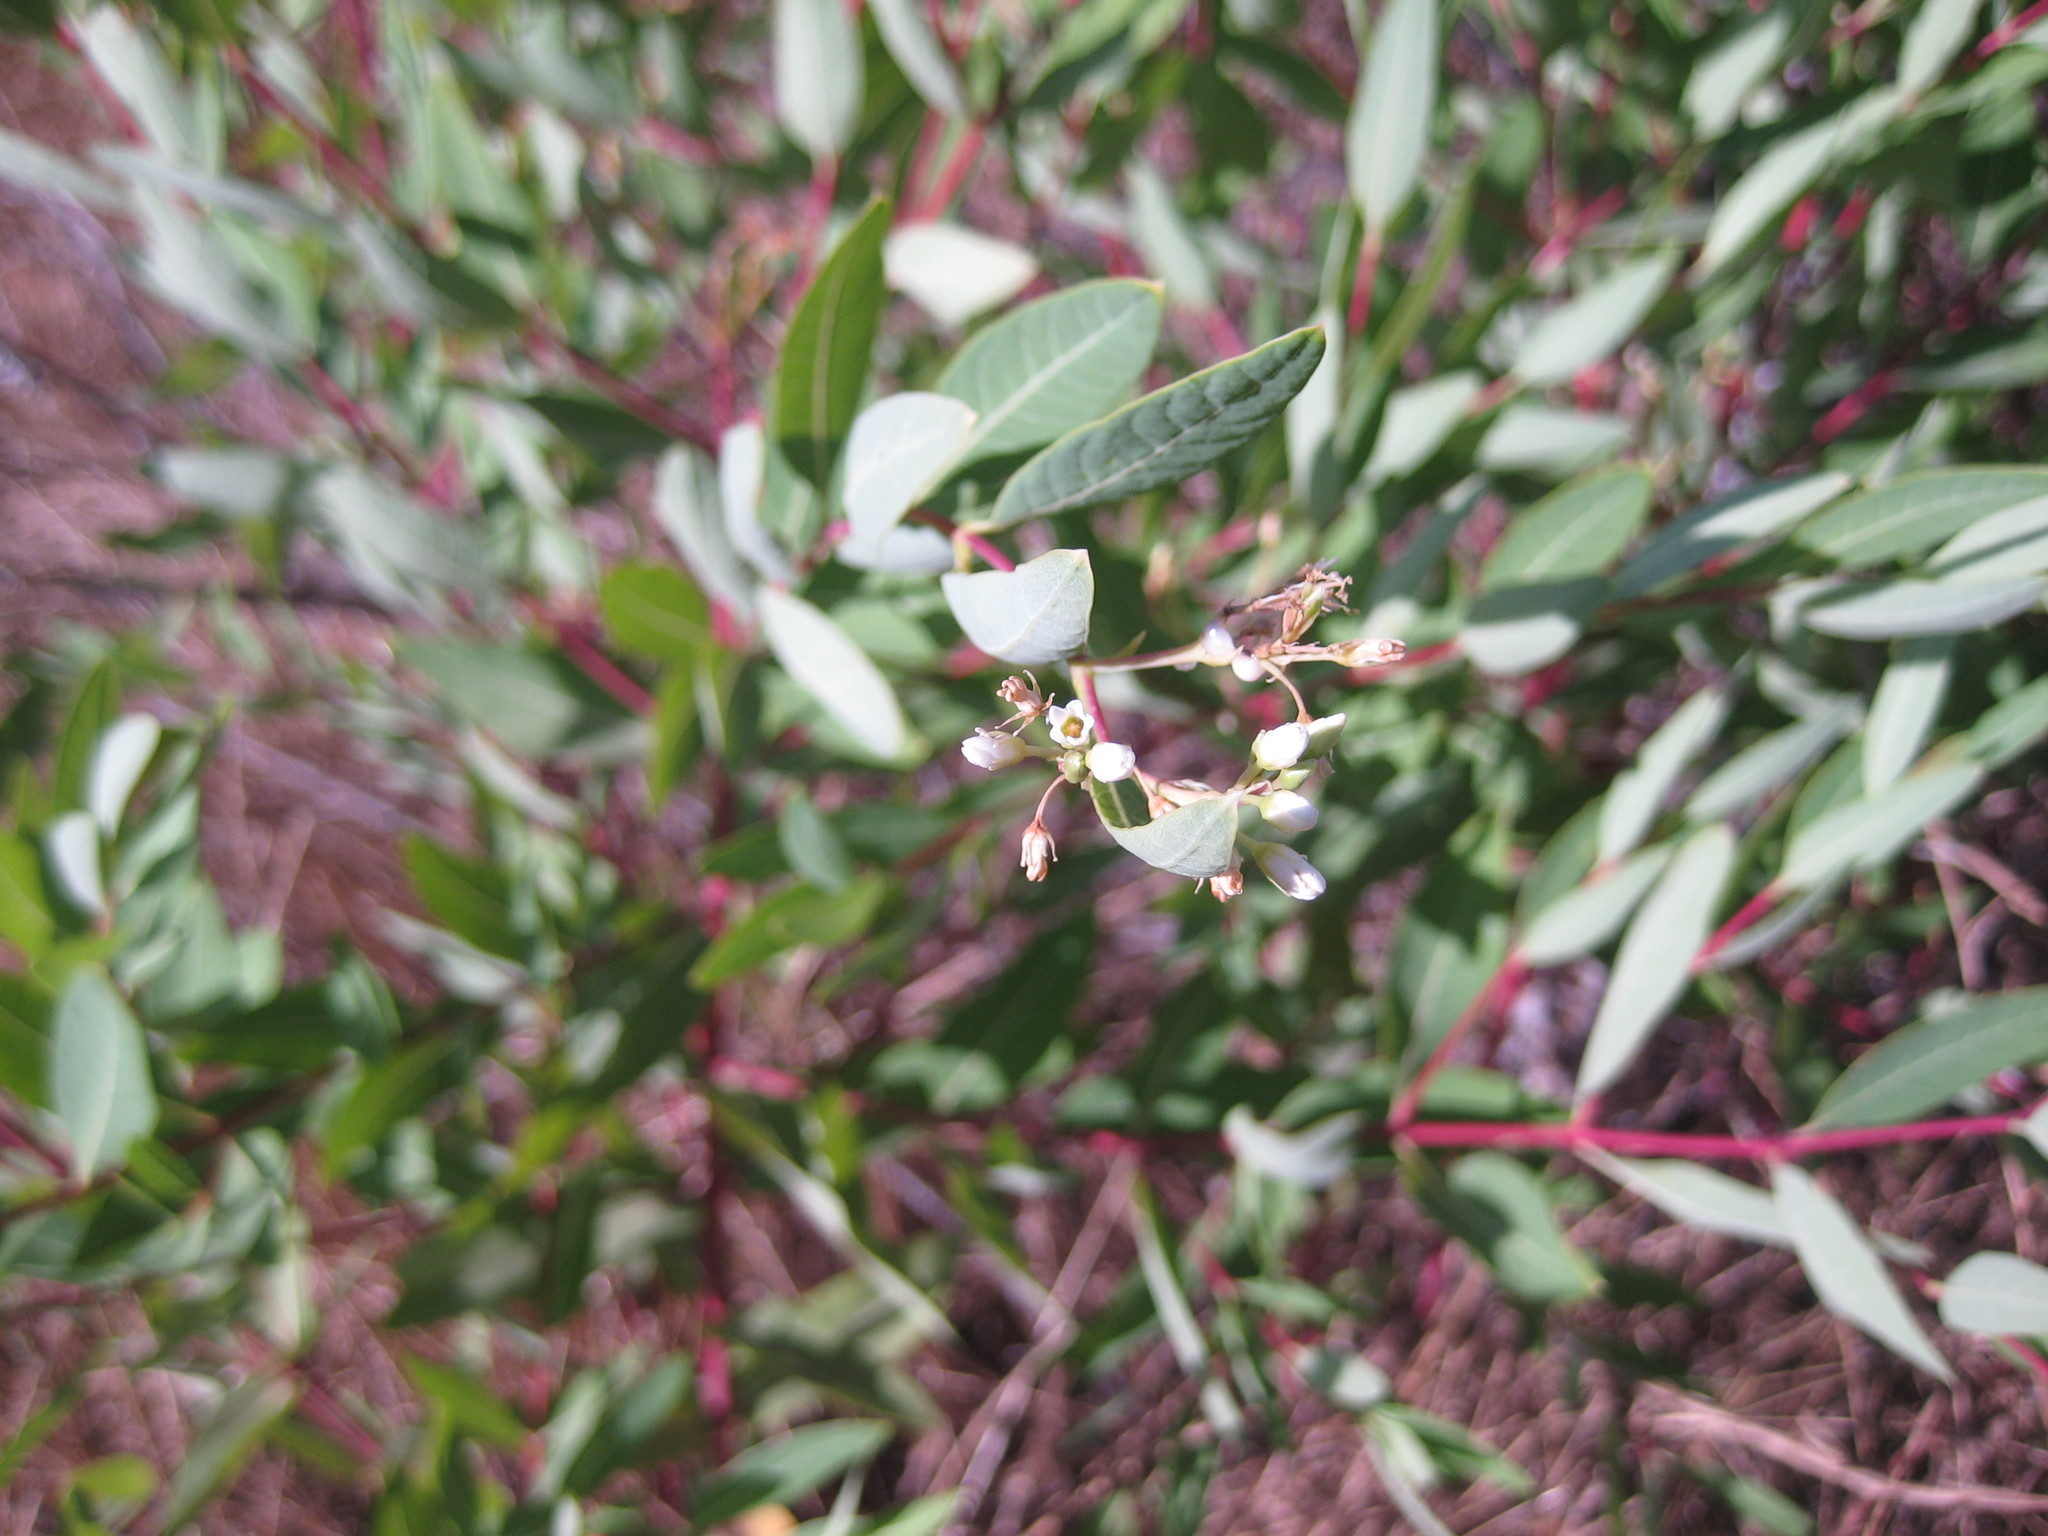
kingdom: Plantae
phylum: Tracheophyta
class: Magnoliopsida
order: Gentianales
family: Apocynaceae
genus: Apocynum
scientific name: Apocynum cannabinum
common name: Hemp dogbane
